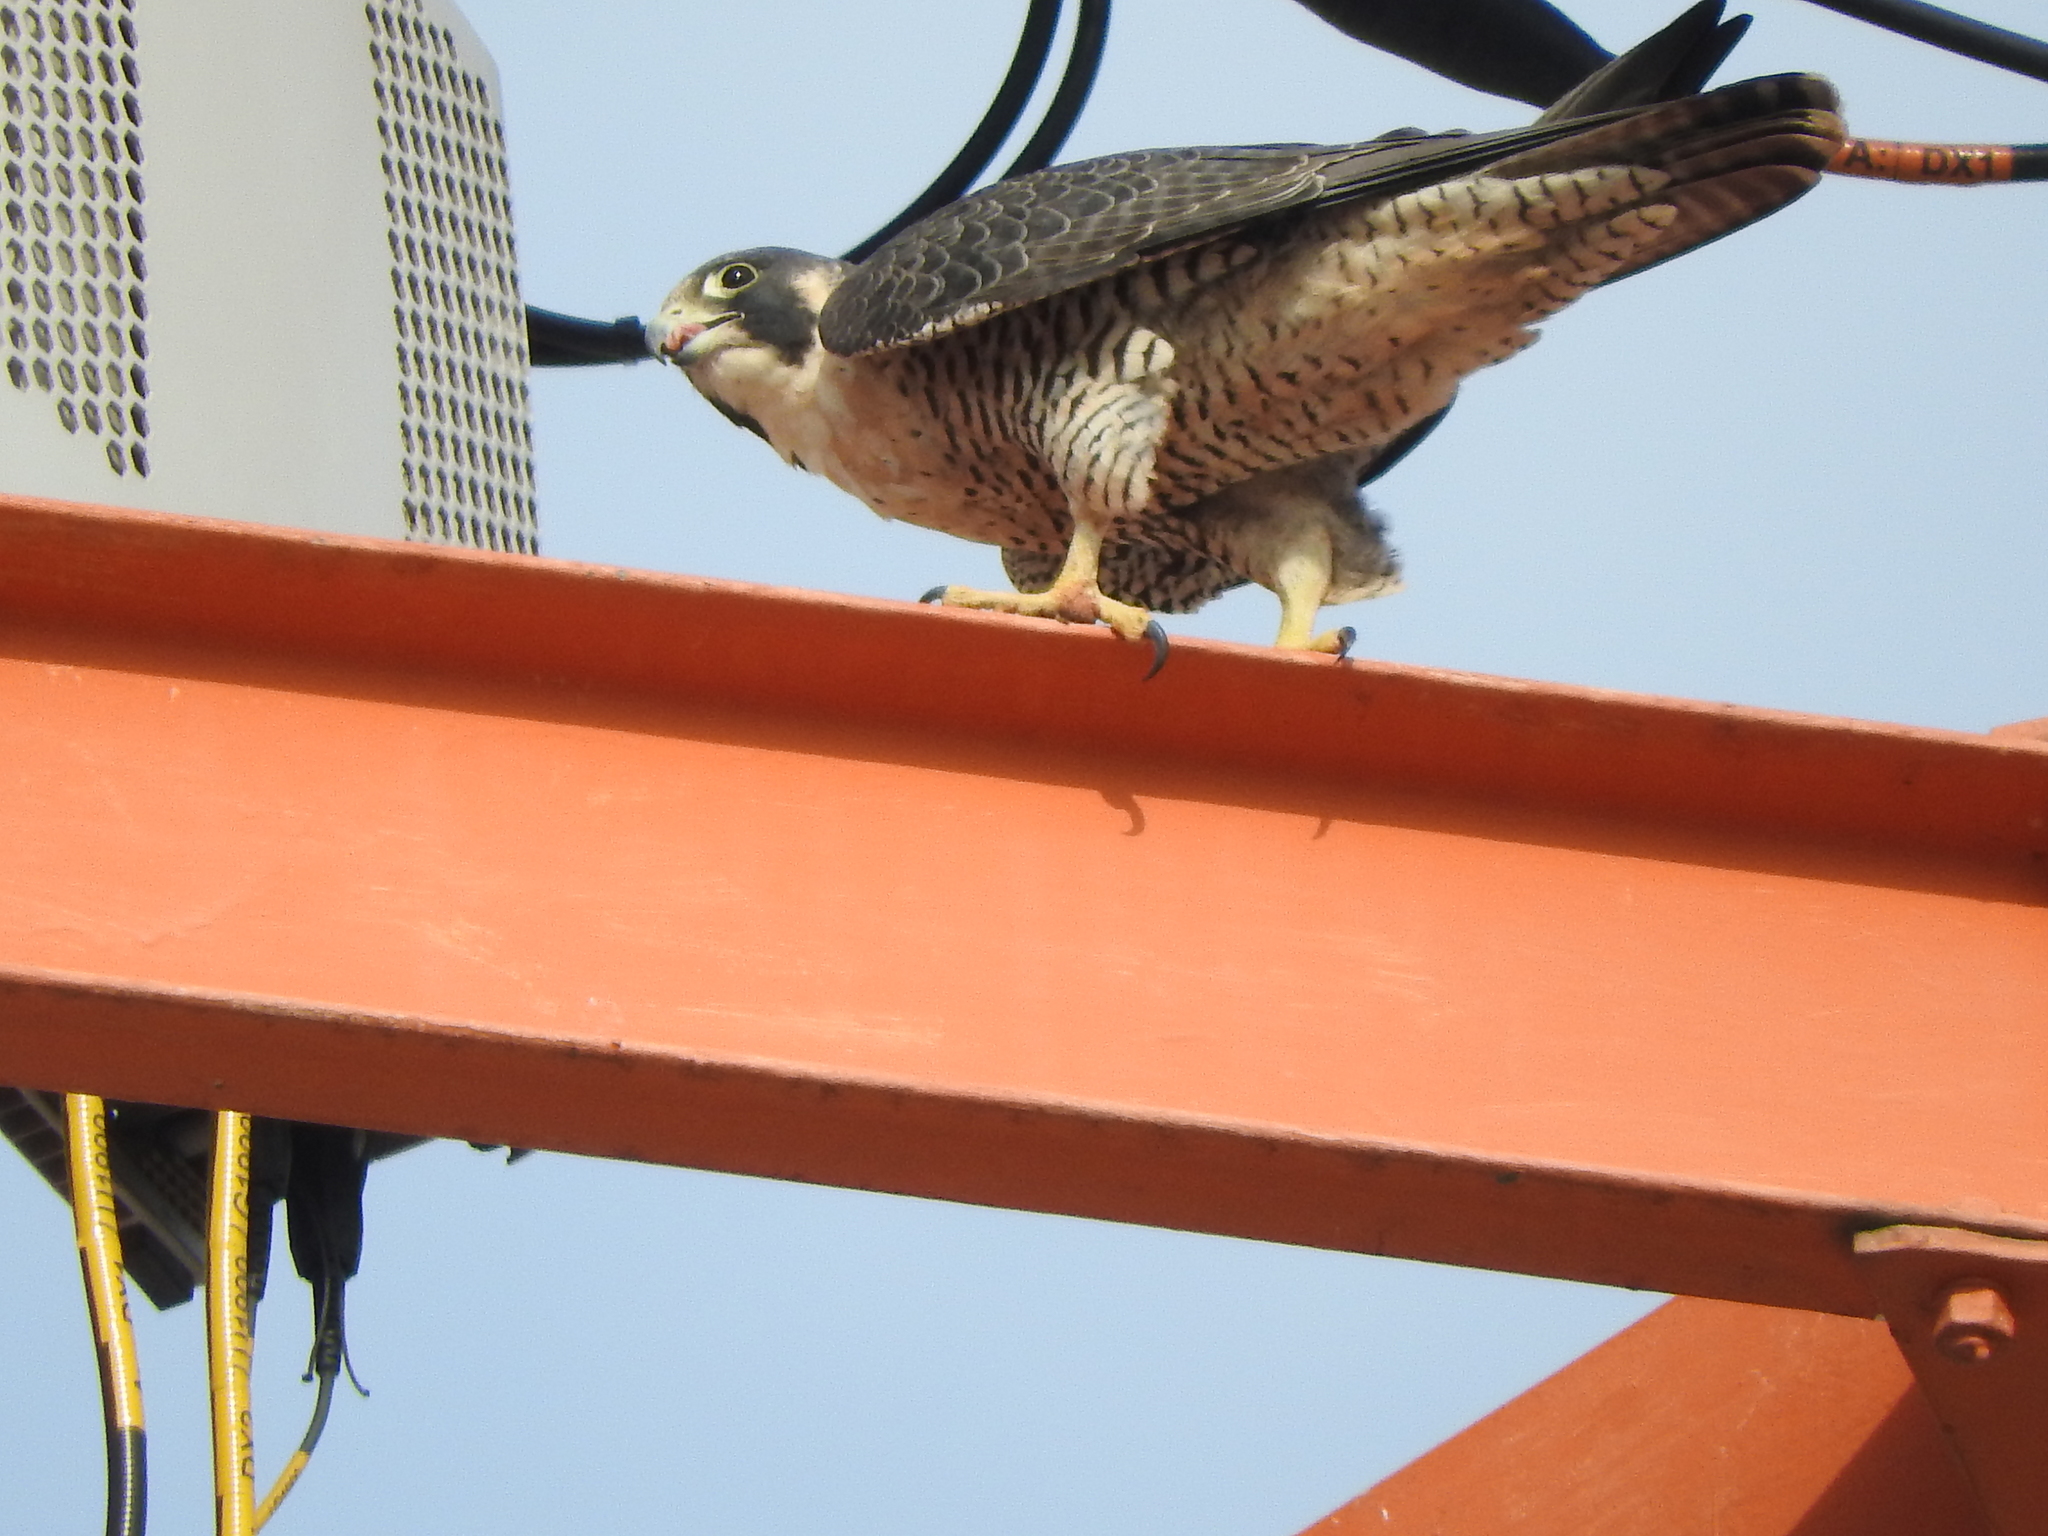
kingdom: Animalia
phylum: Chordata
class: Aves
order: Falconiformes
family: Falconidae
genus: Falco
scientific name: Falco peregrinus
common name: Peregrine falcon
